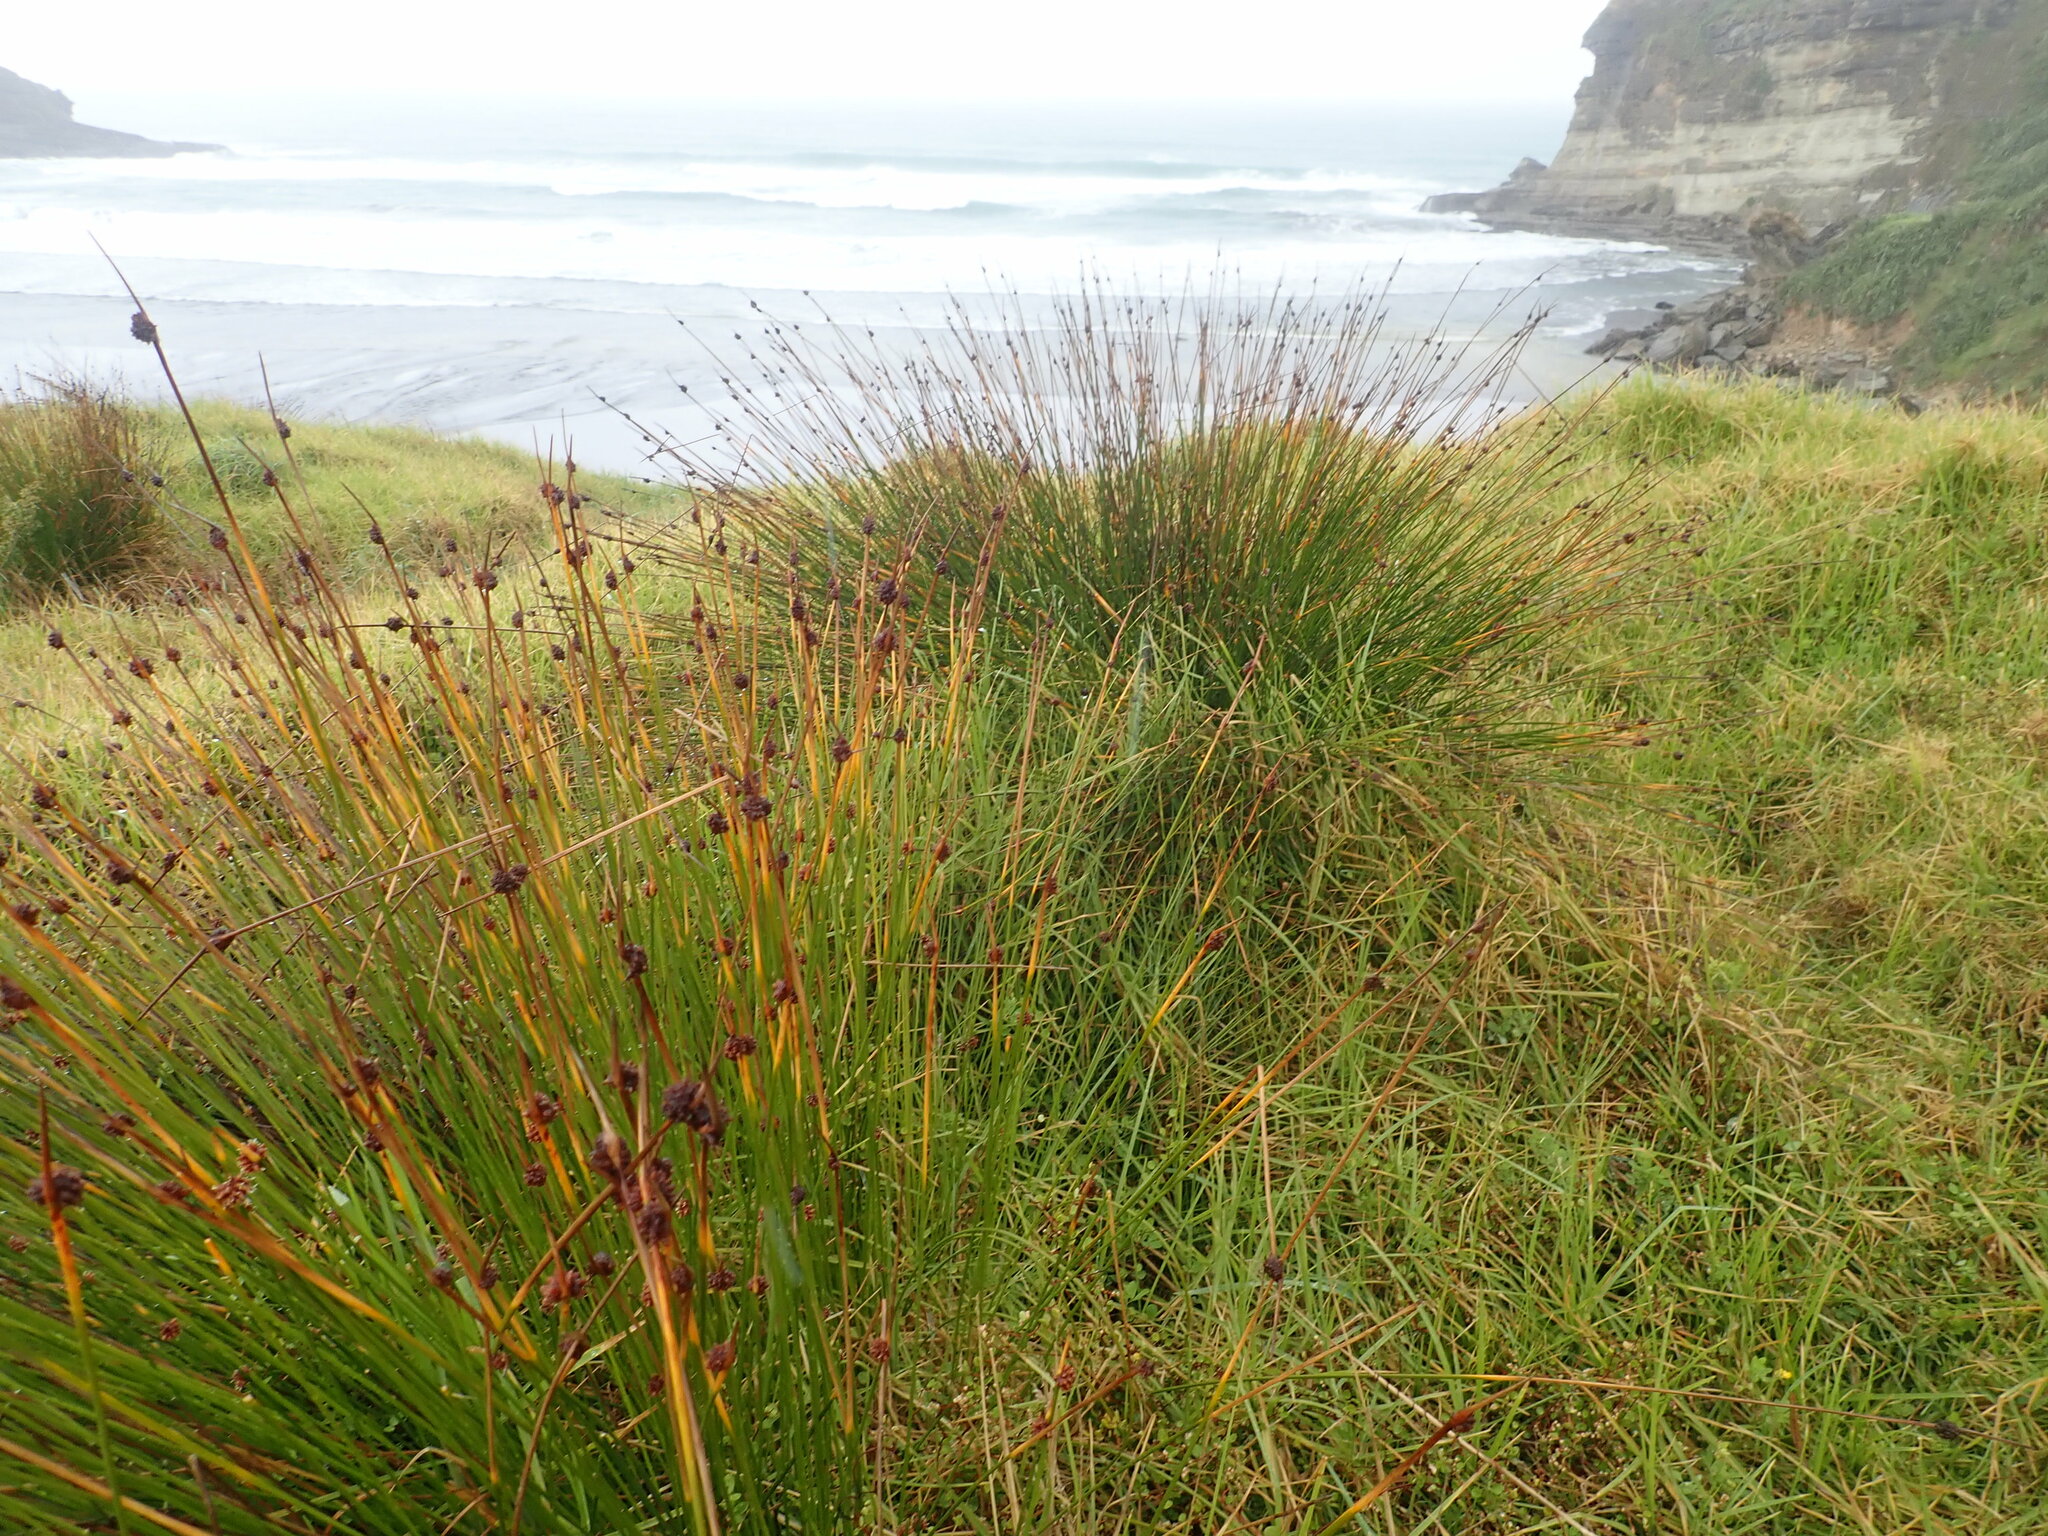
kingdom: Plantae
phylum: Tracheophyta
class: Liliopsida
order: Poales
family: Cyperaceae
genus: Ficinia
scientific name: Ficinia nodosa
